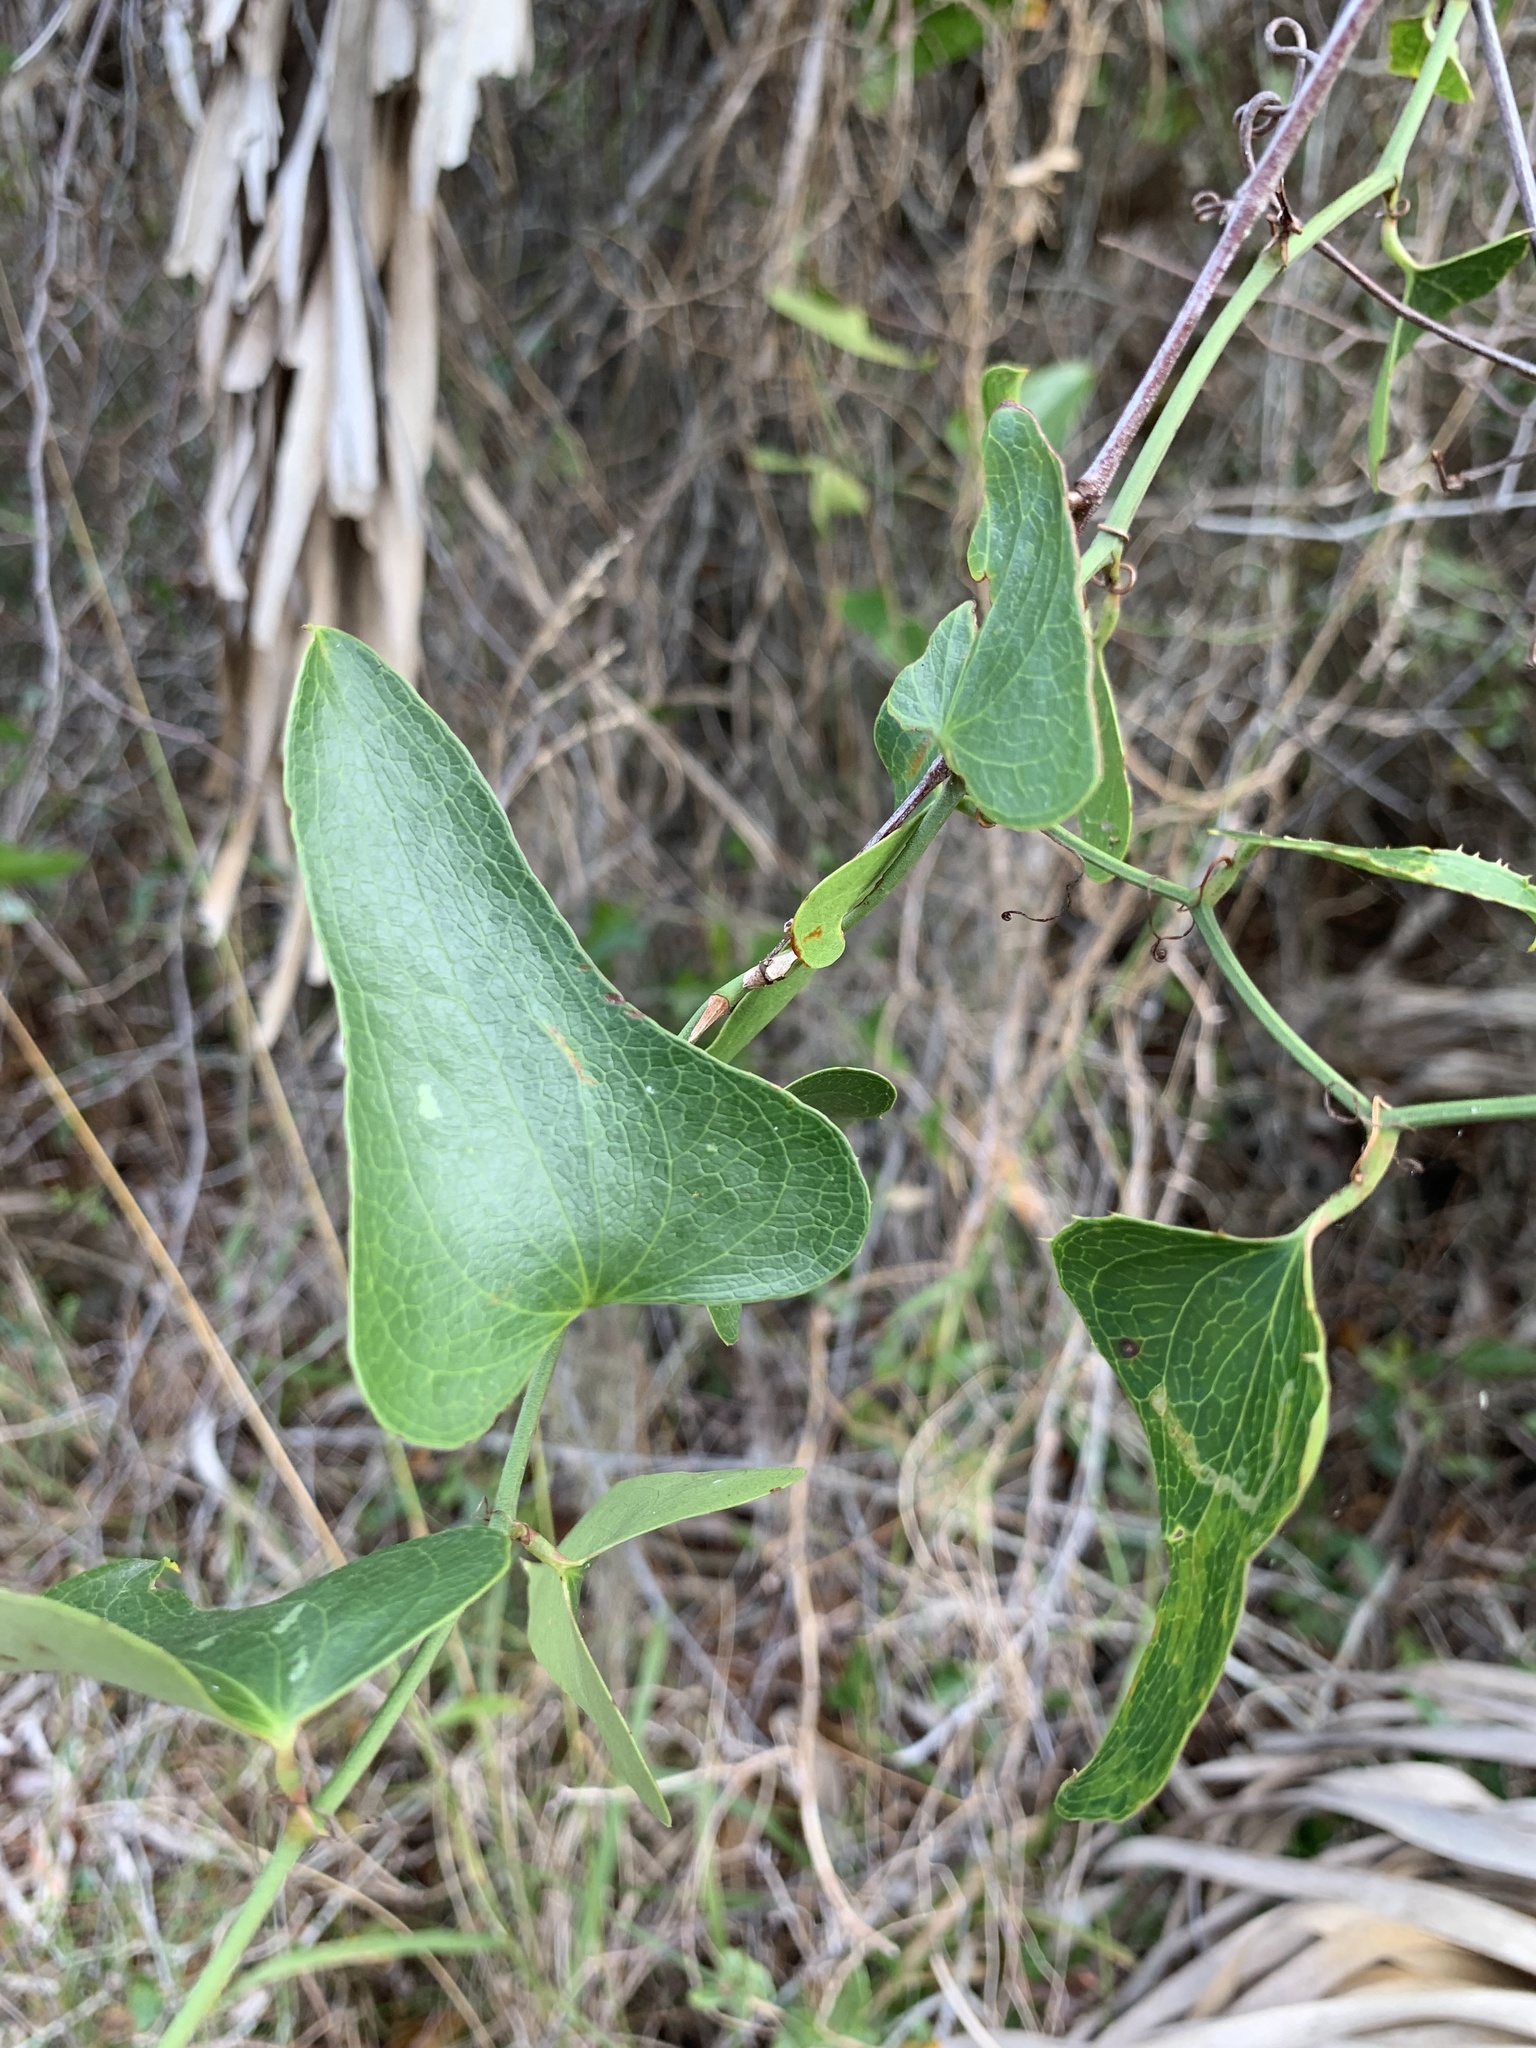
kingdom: Plantae
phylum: Tracheophyta
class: Liliopsida
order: Liliales
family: Smilacaceae
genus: Smilax
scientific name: Smilax bona-nox
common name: Catbrier
